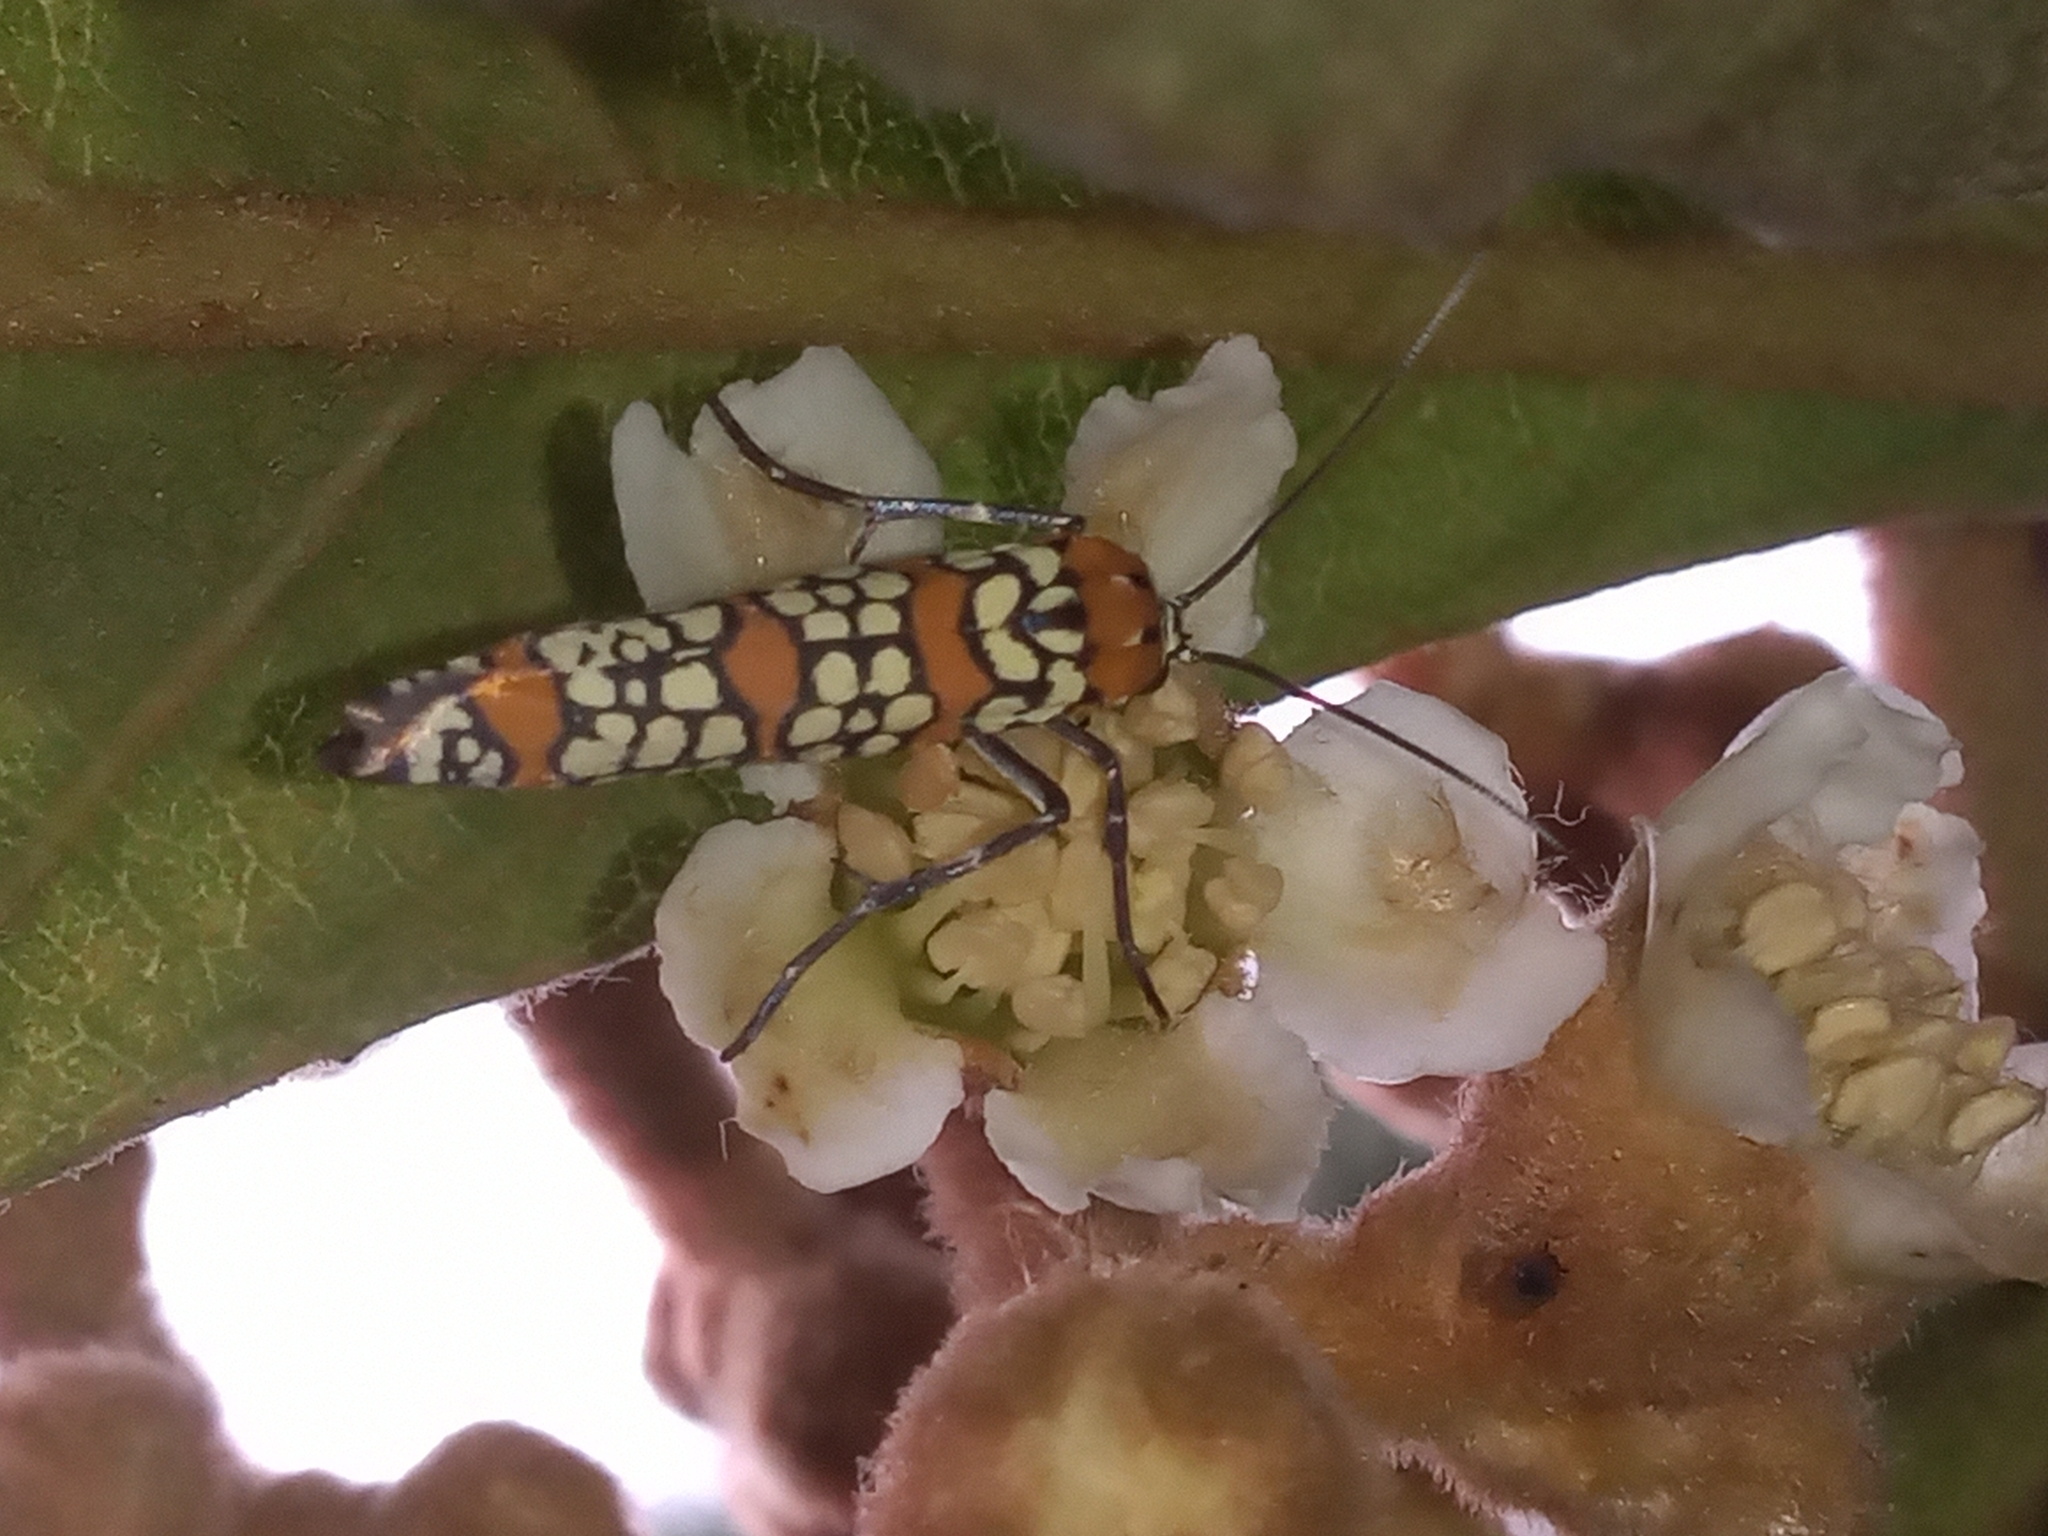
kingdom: Animalia
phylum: Arthropoda
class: Insecta
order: Lepidoptera
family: Attevidae
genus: Atteva
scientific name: Atteva punctella
